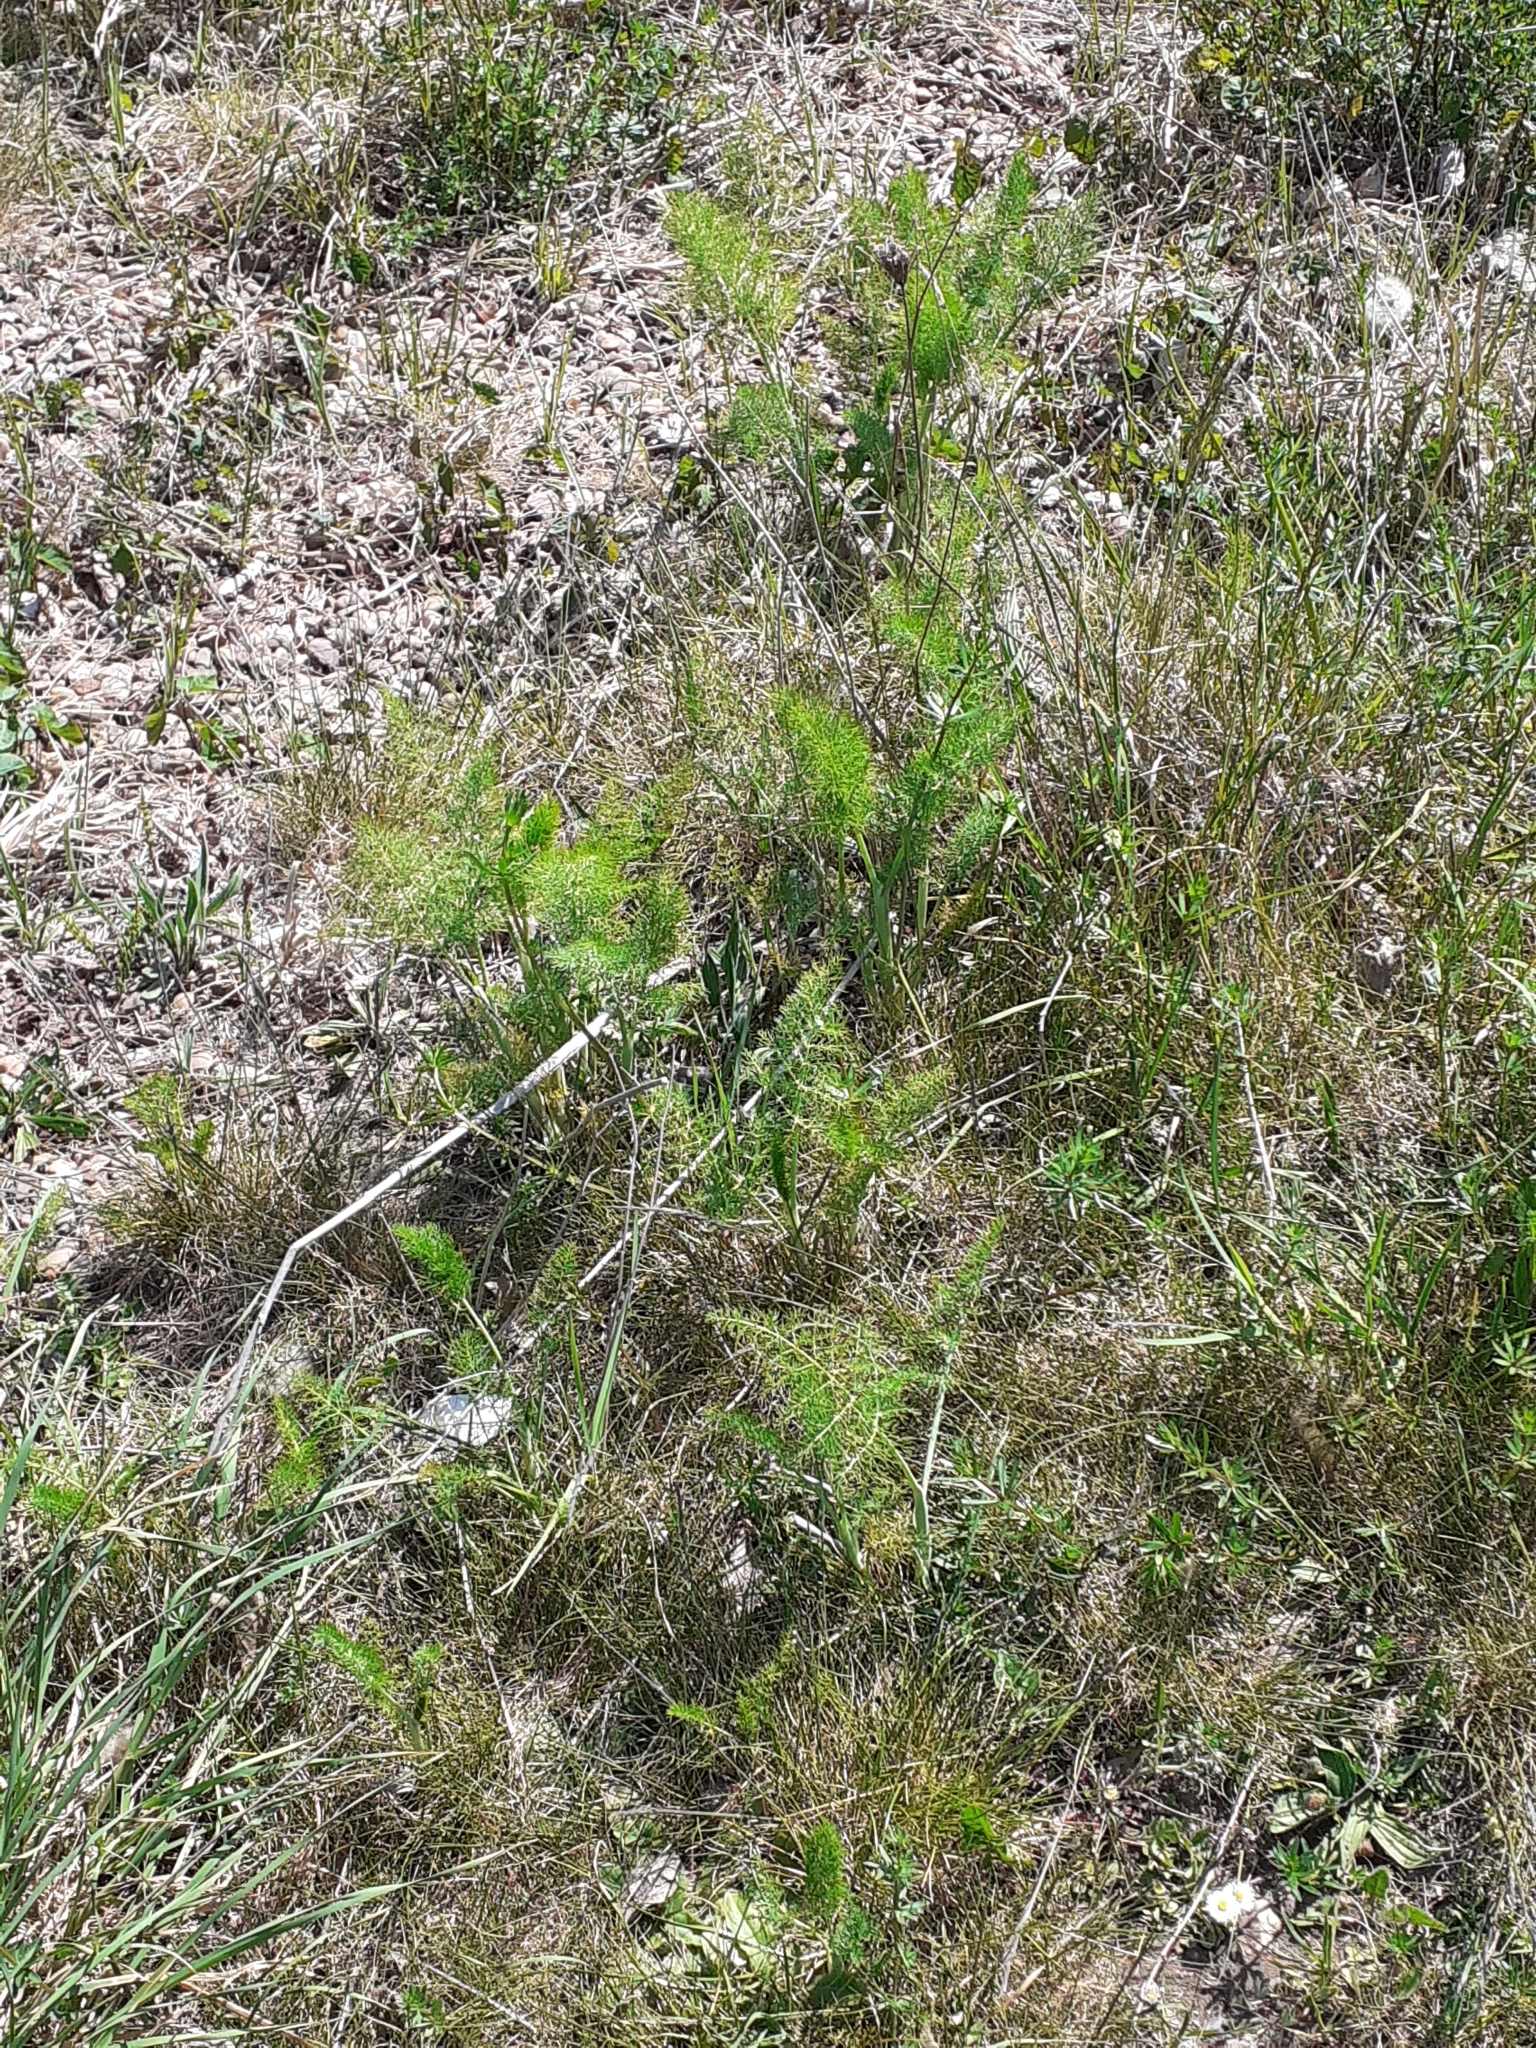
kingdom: Plantae
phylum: Tracheophyta
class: Magnoliopsida
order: Apiales
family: Apiaceae
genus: Foeniculum
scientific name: Foeniculum vulgare
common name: Fennel
